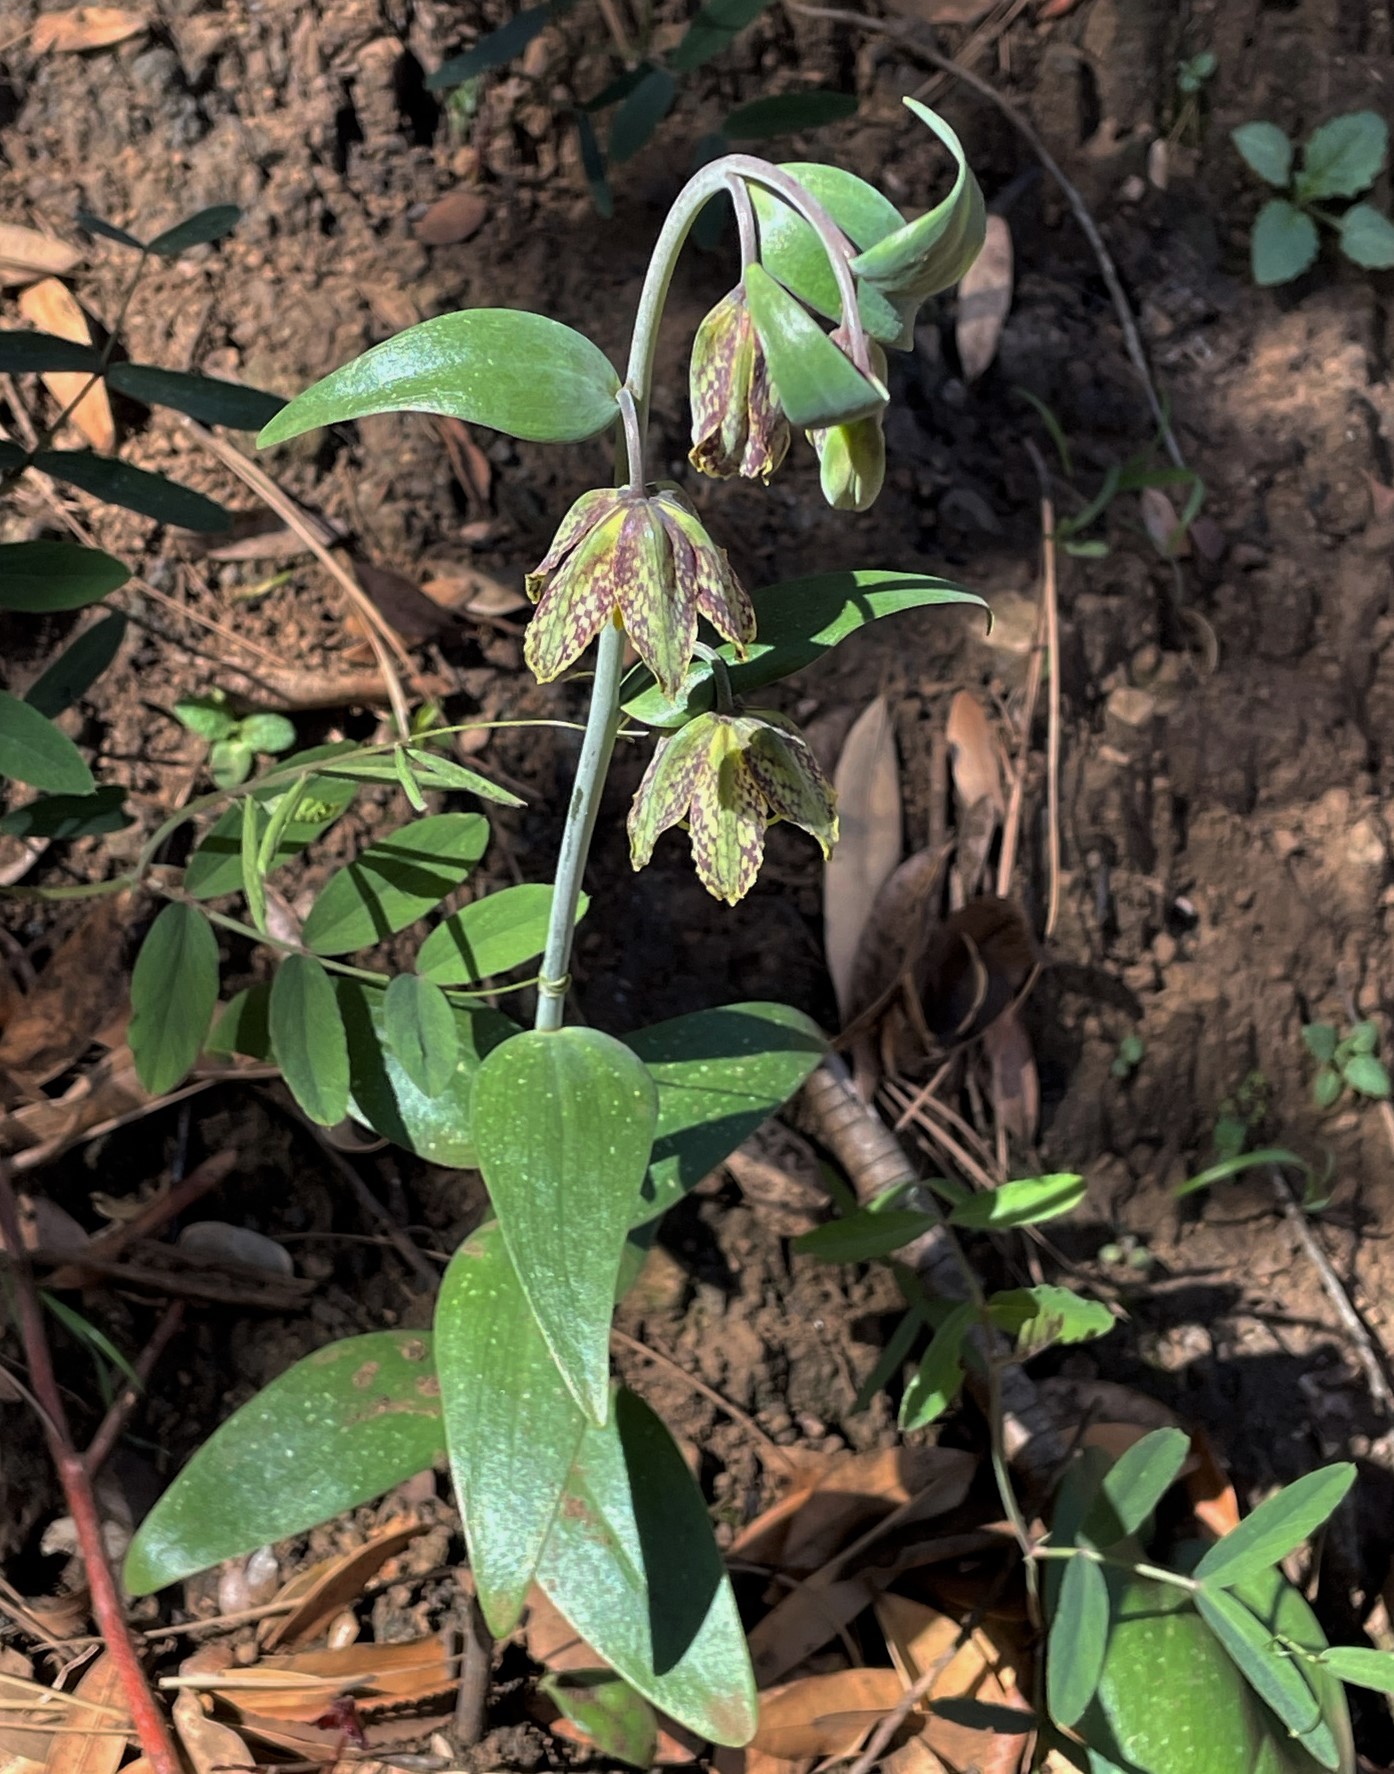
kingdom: Plantae
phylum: Tracheophyta
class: Liliopsida
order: Liliales
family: Liliaceae
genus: Fritillaria
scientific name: Fritillaria affinis
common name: Ojai fritillary
